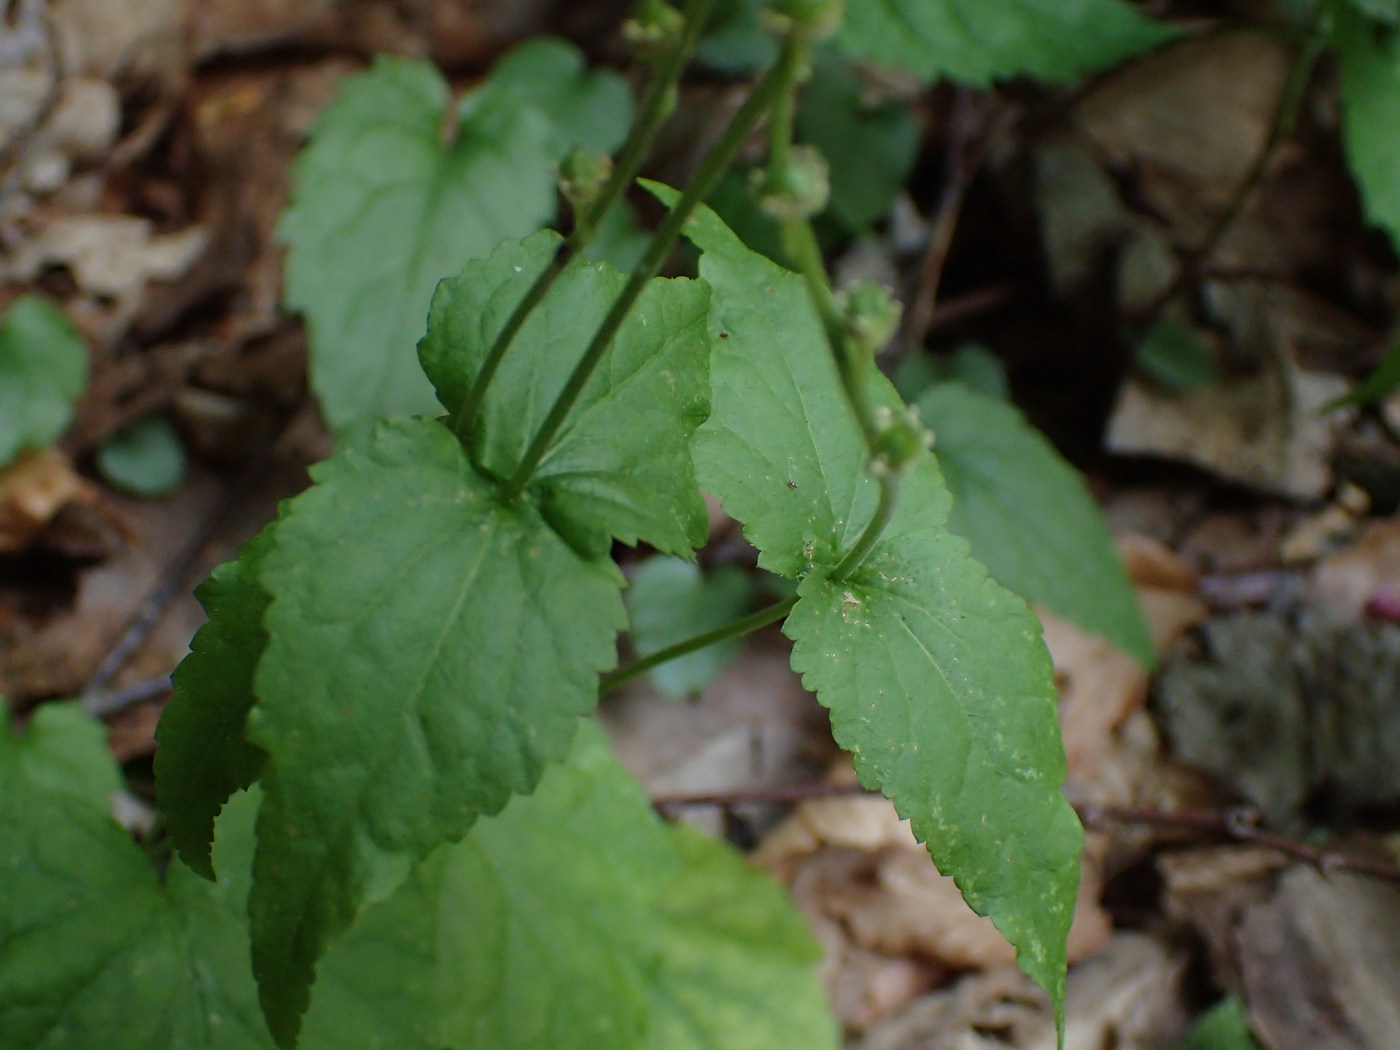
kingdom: Plantae
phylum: Tracheophyta
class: Magnoliopsida
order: Saxifragales
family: Saxifragaceae
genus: Mitella
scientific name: Mitella diphylla
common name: Coolwort
